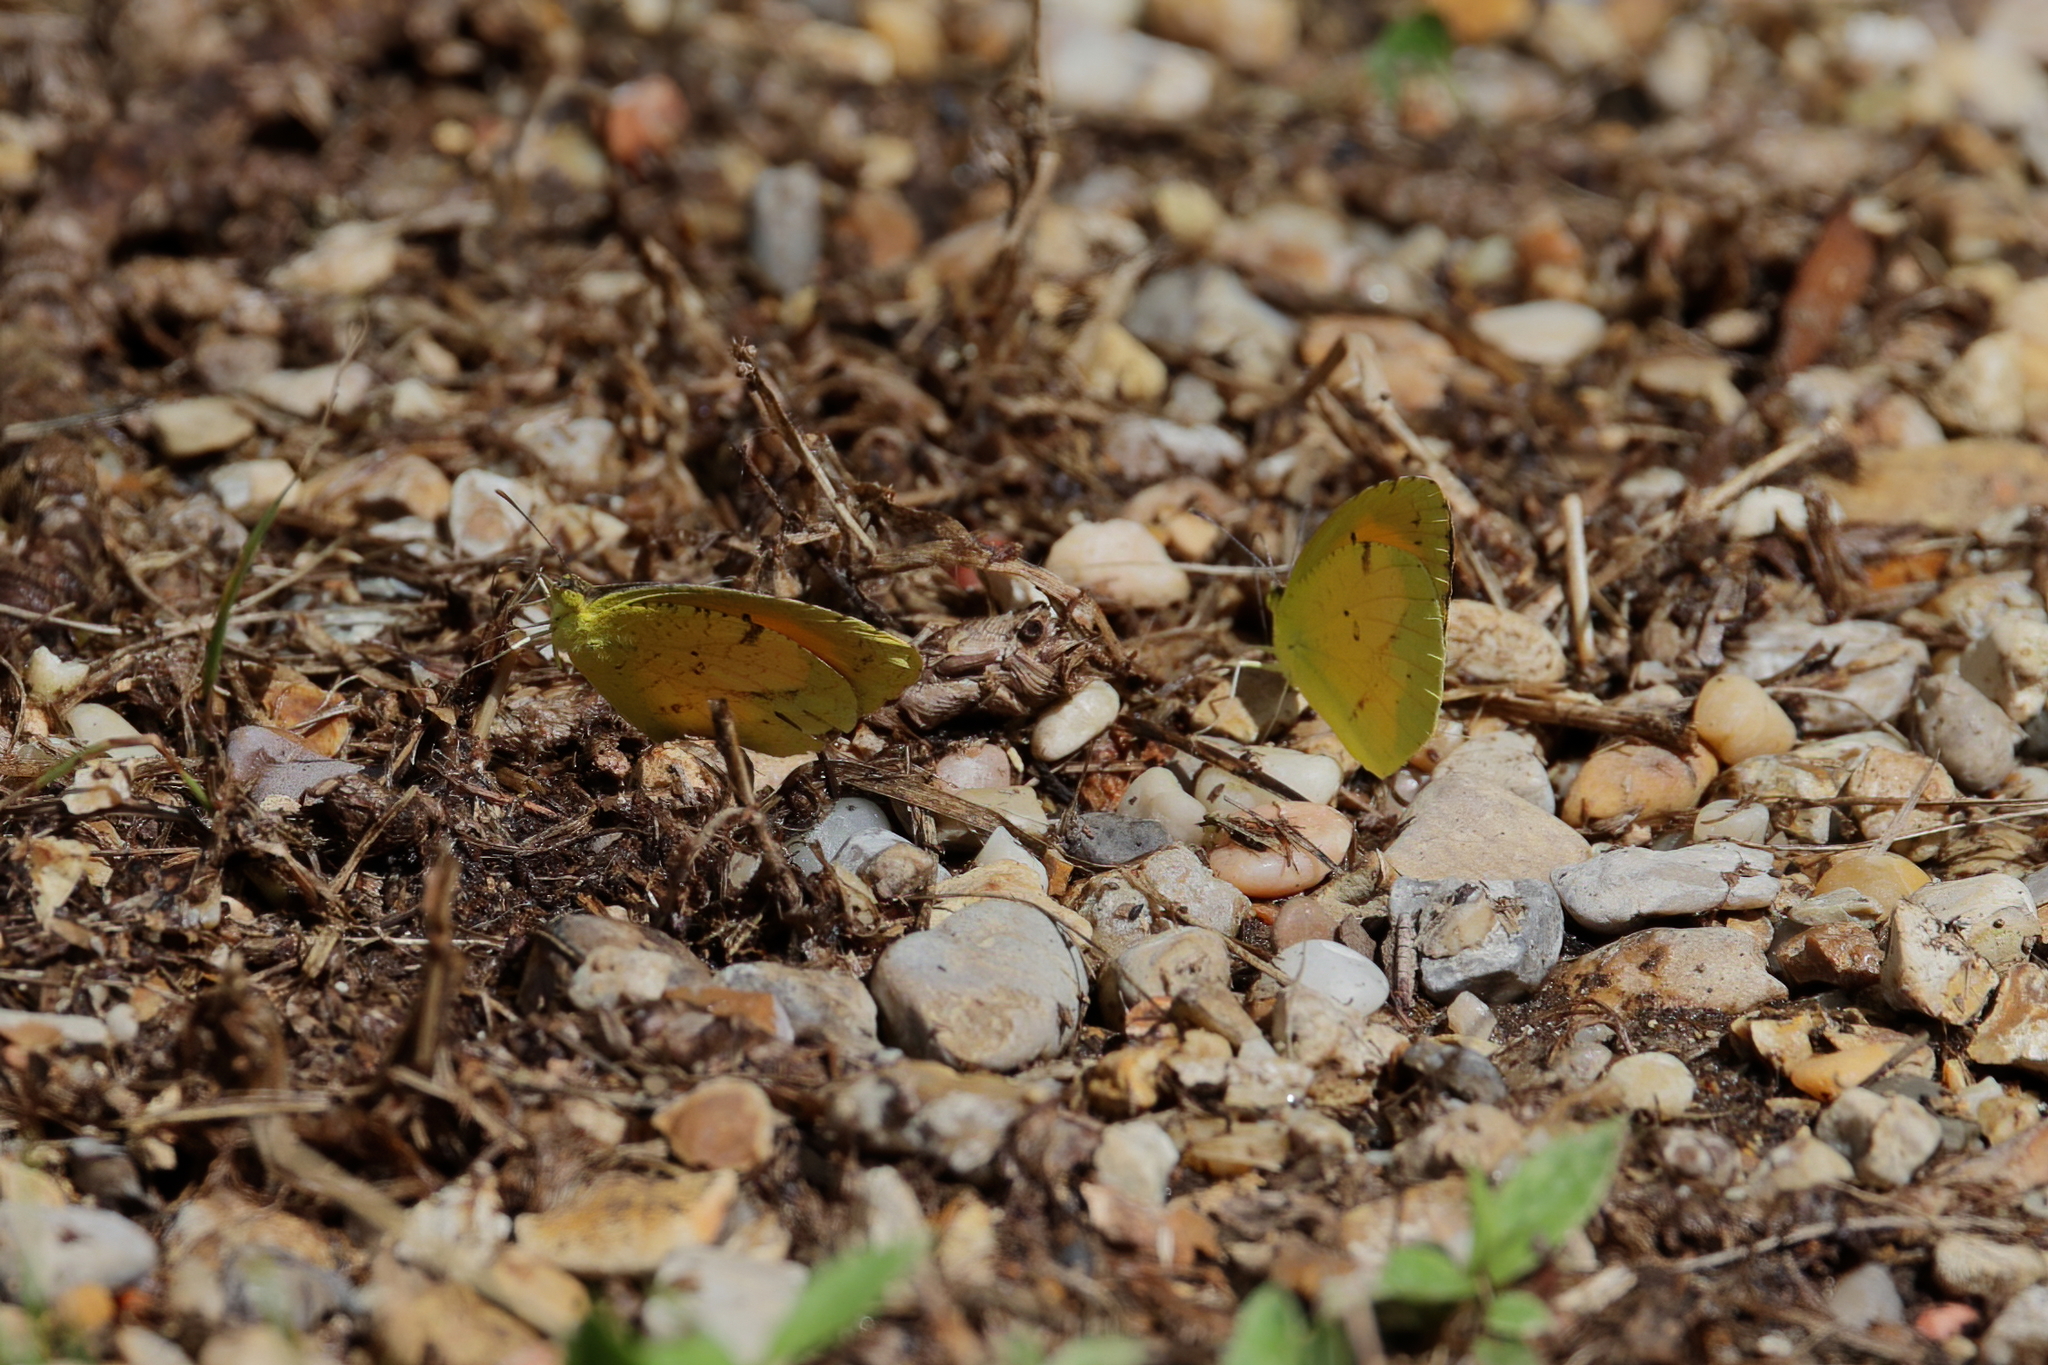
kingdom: Animalia
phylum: Arthropoda
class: Insecta
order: Lepidoptera
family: Pieridae
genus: Abaeis
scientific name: Abaeis nicippe
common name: Sleepy orange
